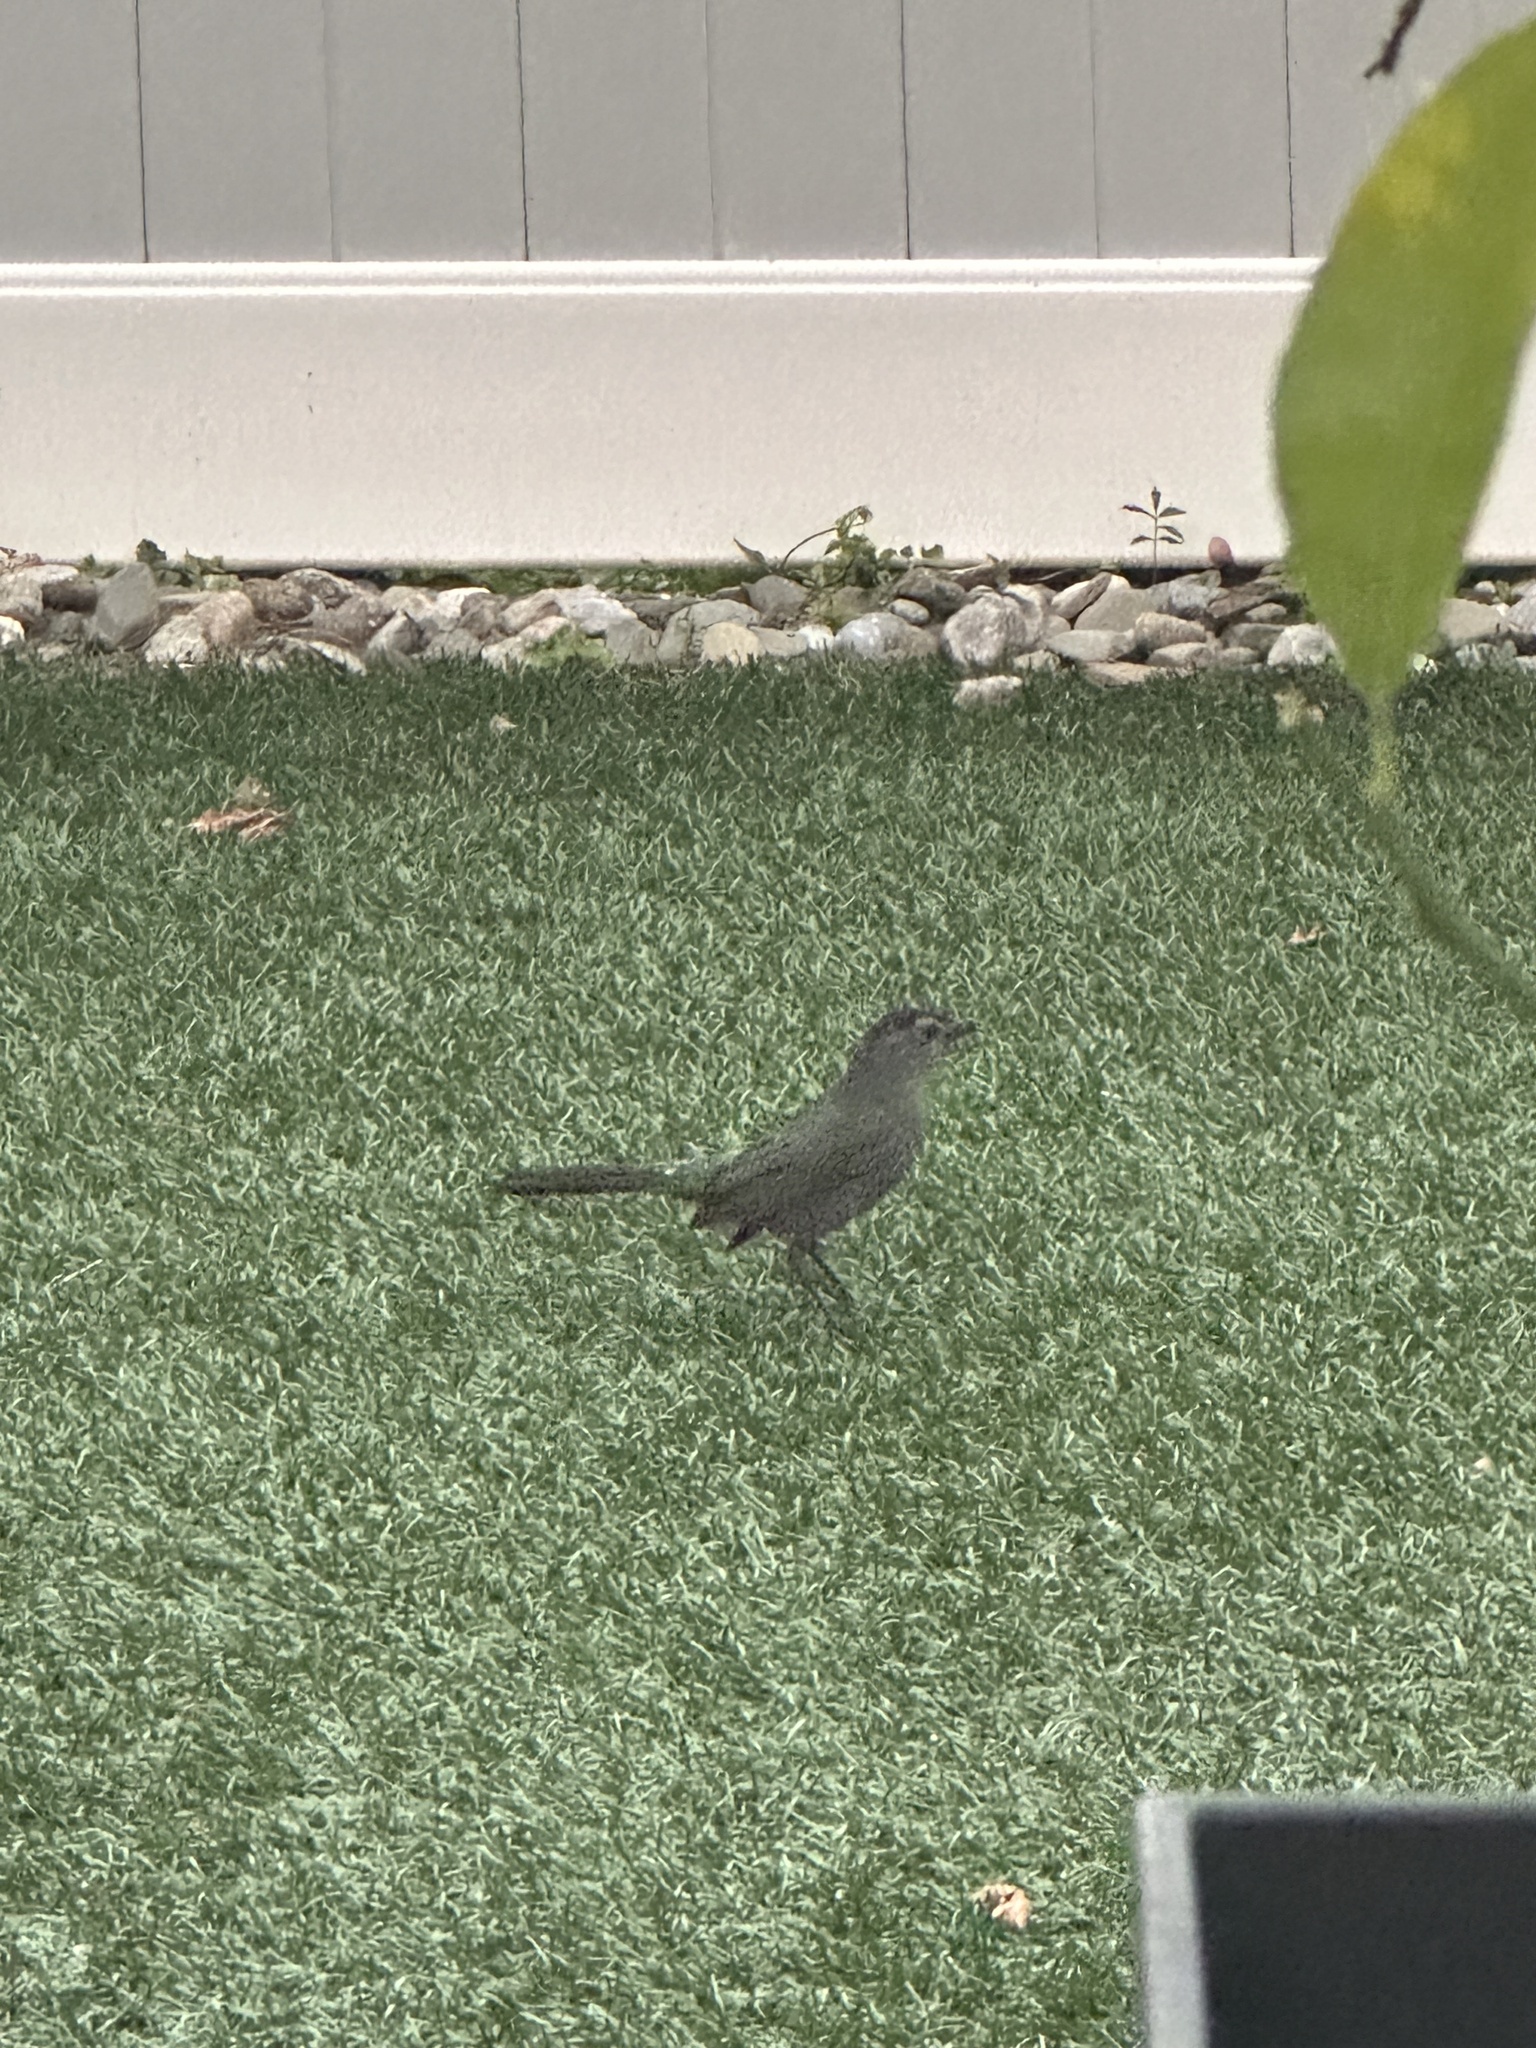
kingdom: Animalia
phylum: Chordata
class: Aves
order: Passeriformes
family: Mimidae
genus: Dumetella
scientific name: Dumetella carolinensis
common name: Gray catbird
